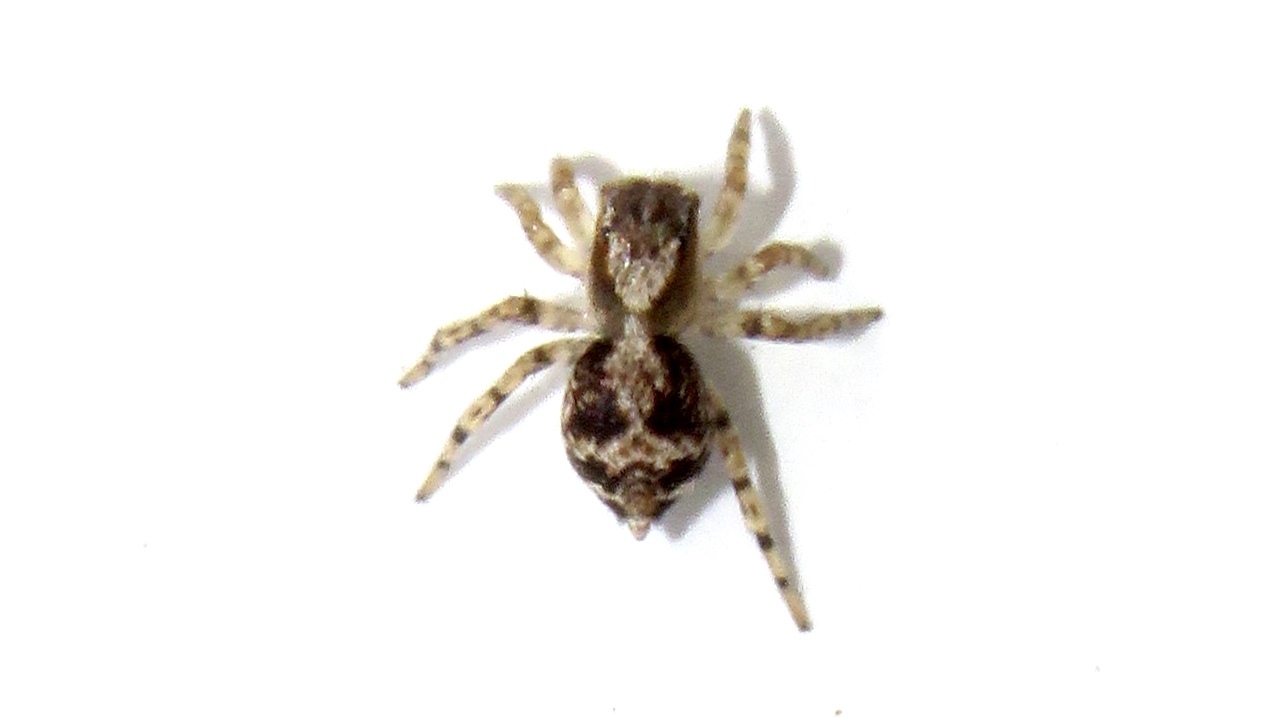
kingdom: Animalia
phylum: Arthropoda
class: Arachnida
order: Araneae
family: Salticidae
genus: Naphrys
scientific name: Naphrys pulex
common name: Flea jumping spider
